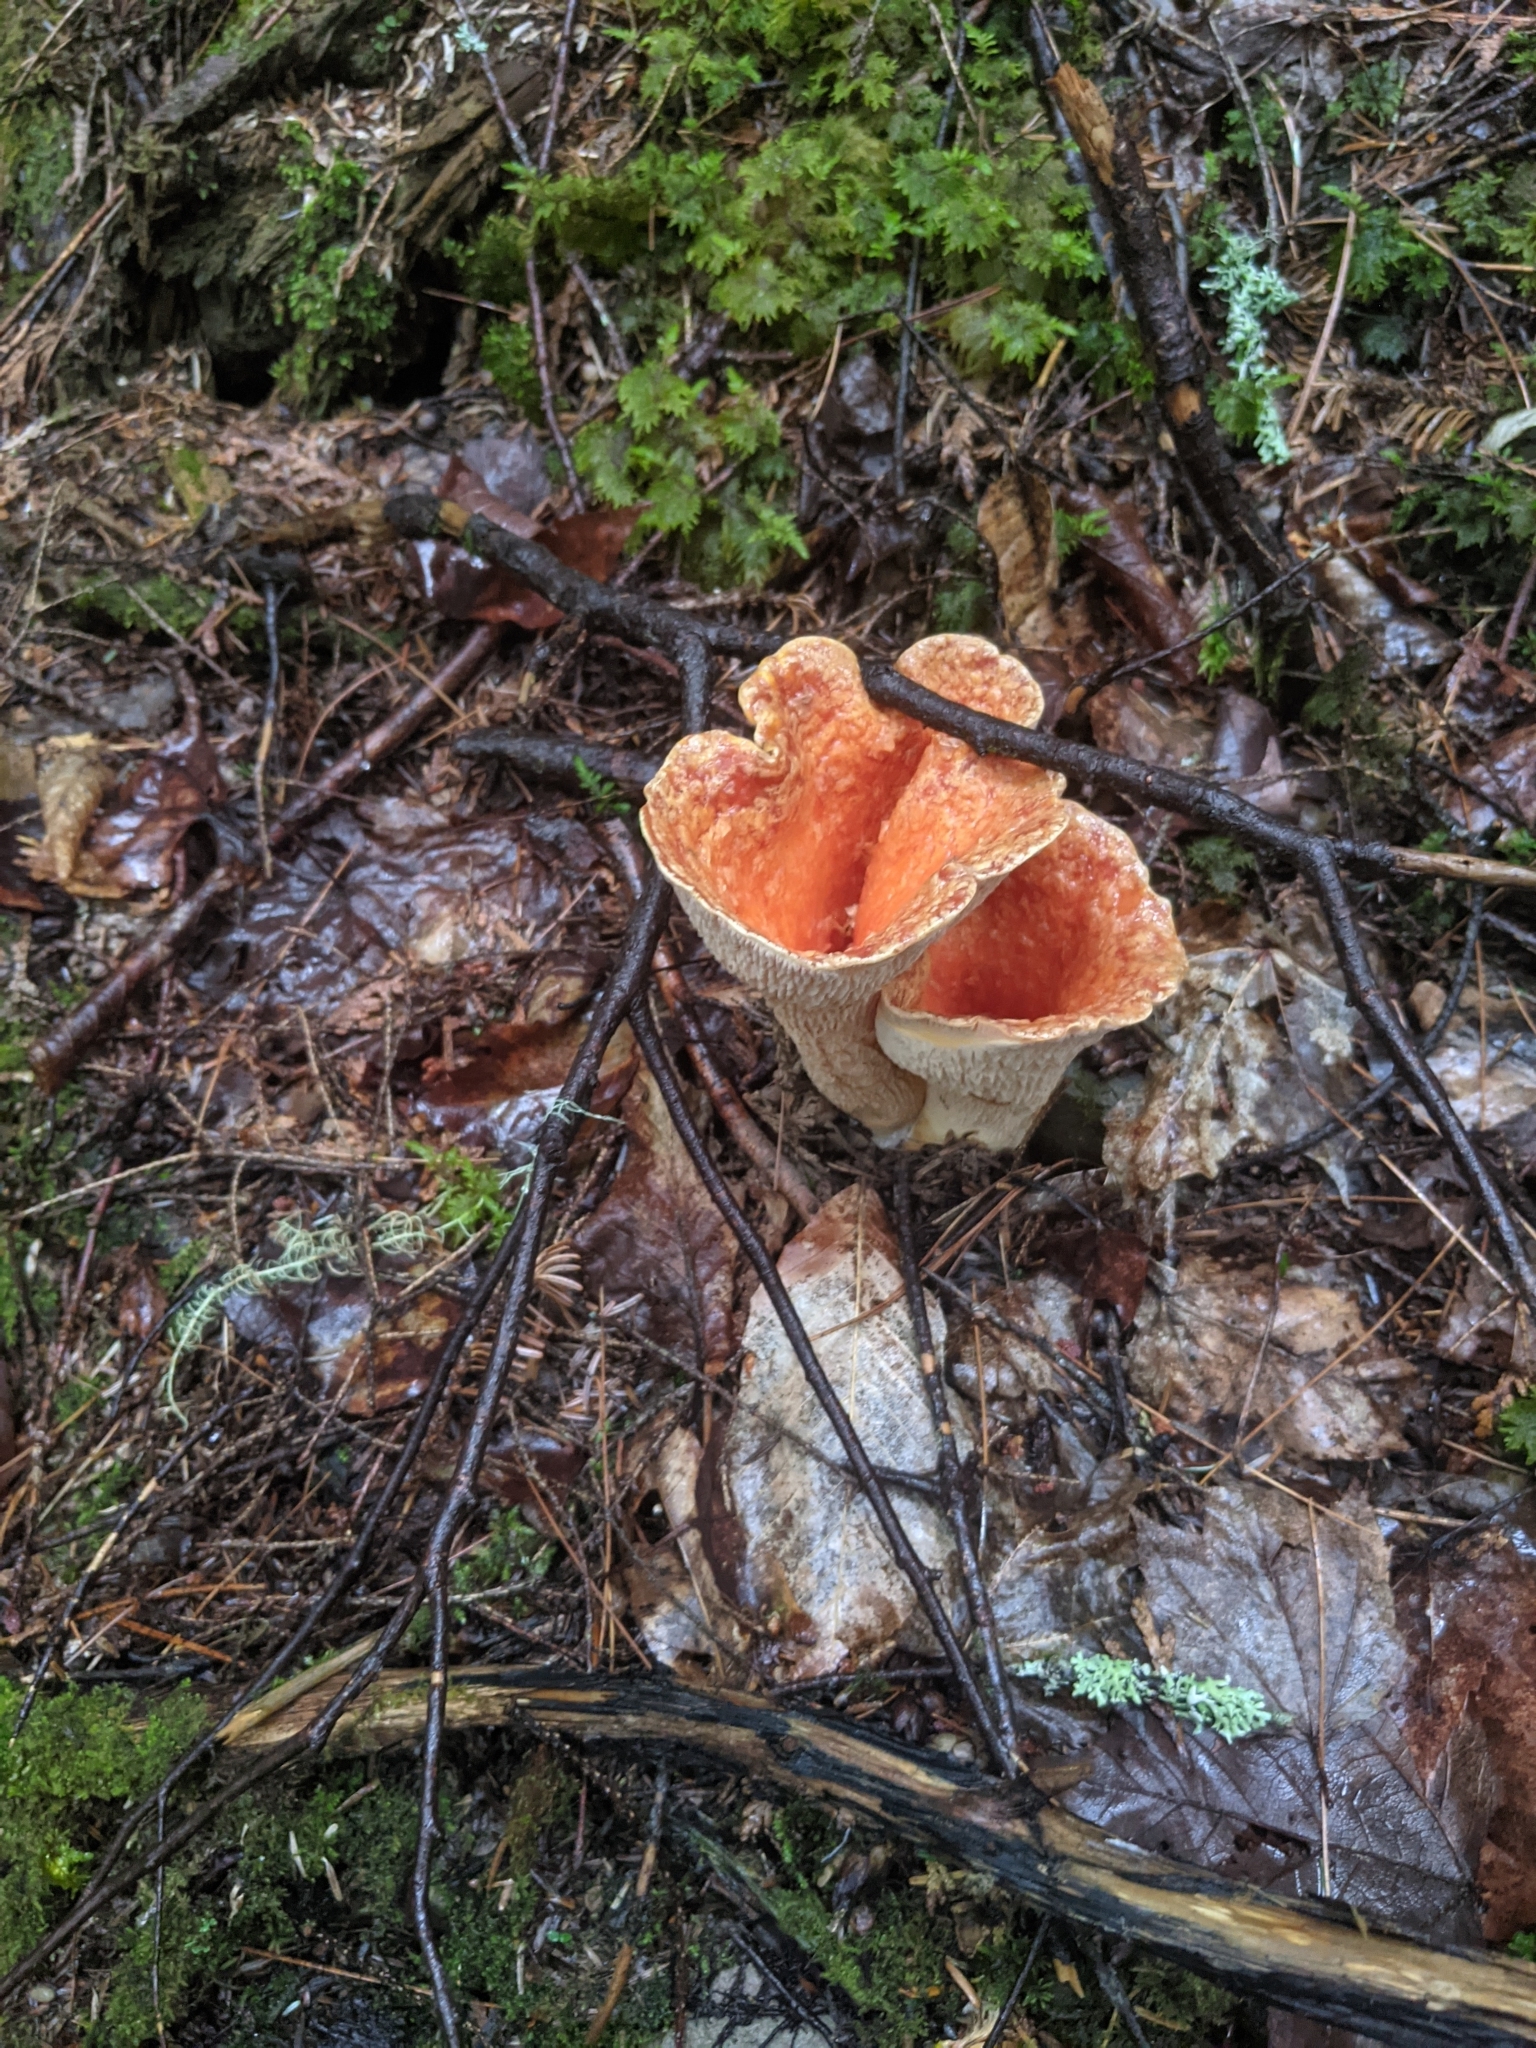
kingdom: Fungi
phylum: Basidiomycota
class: Agaricomycetes
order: Gomphales
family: Gomphaceae
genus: Turbinellus
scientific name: Turbinellus floccosus
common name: Scaly chanterelle
